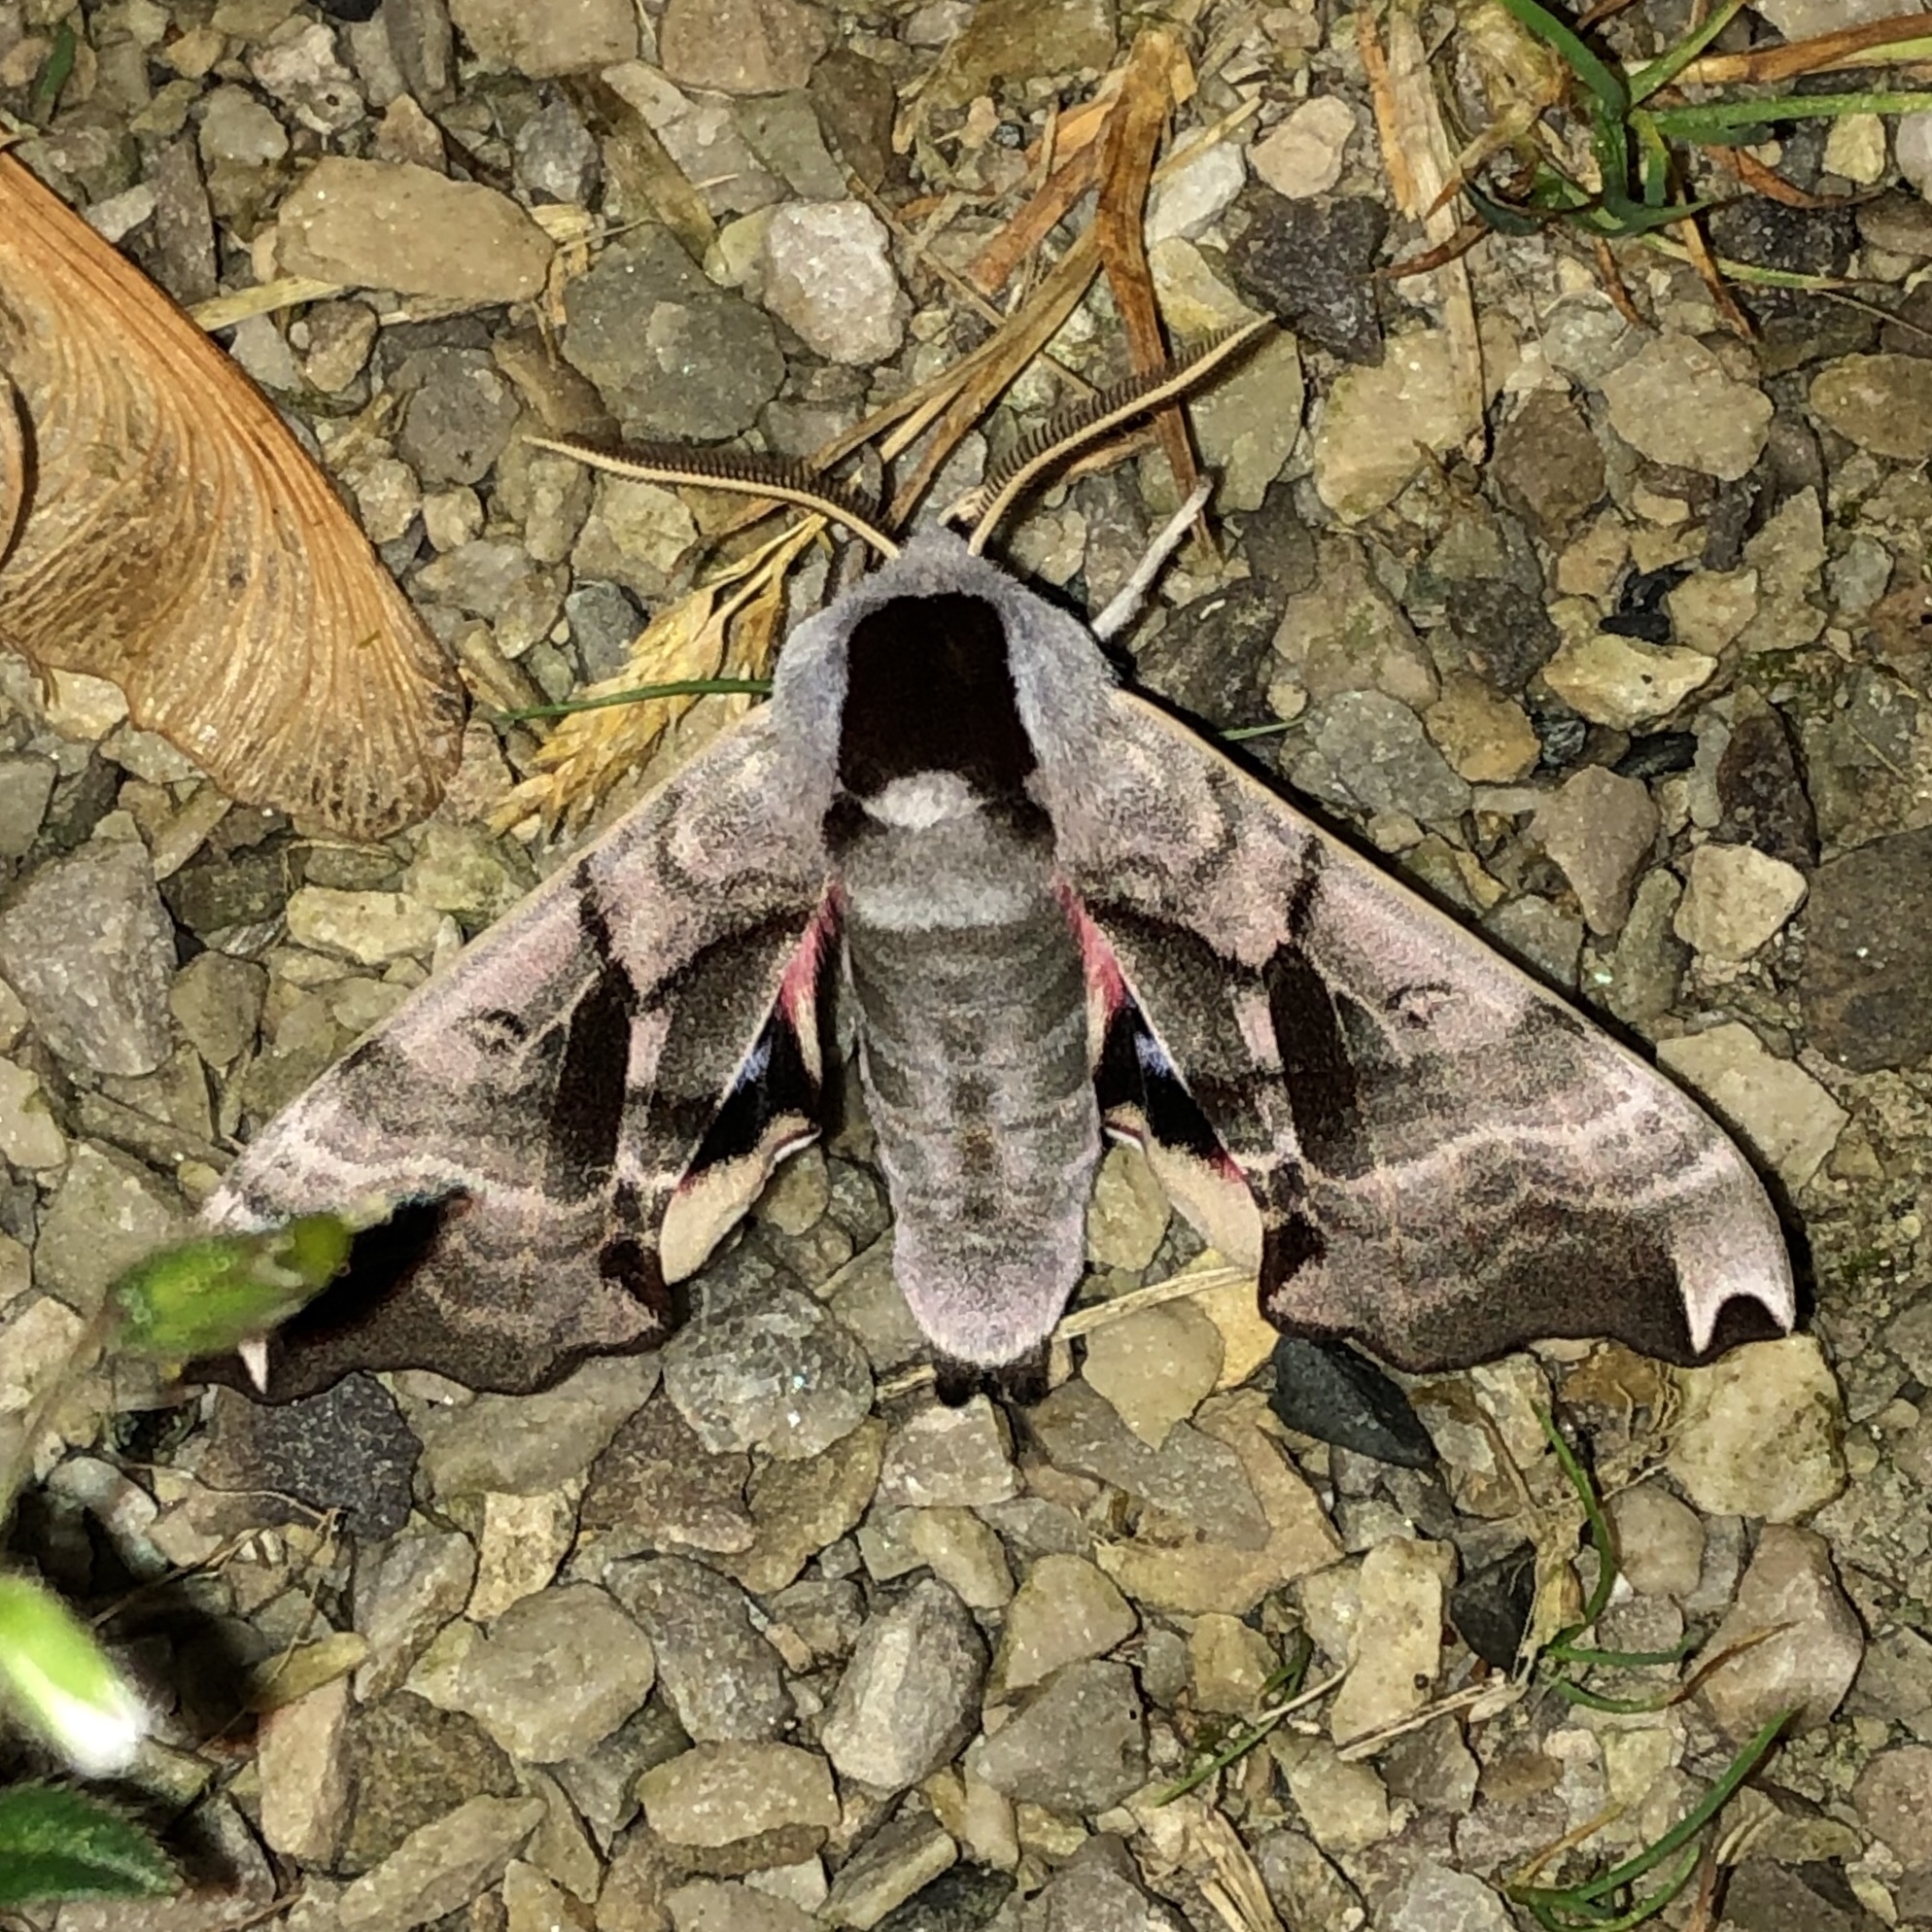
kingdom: Animalia
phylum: Arthropoda
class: Insecta
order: Lepidoptera
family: Sphingidae
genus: Smerinthus
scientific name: Smerinthus jamaicensis
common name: Twin spotted sphinx
